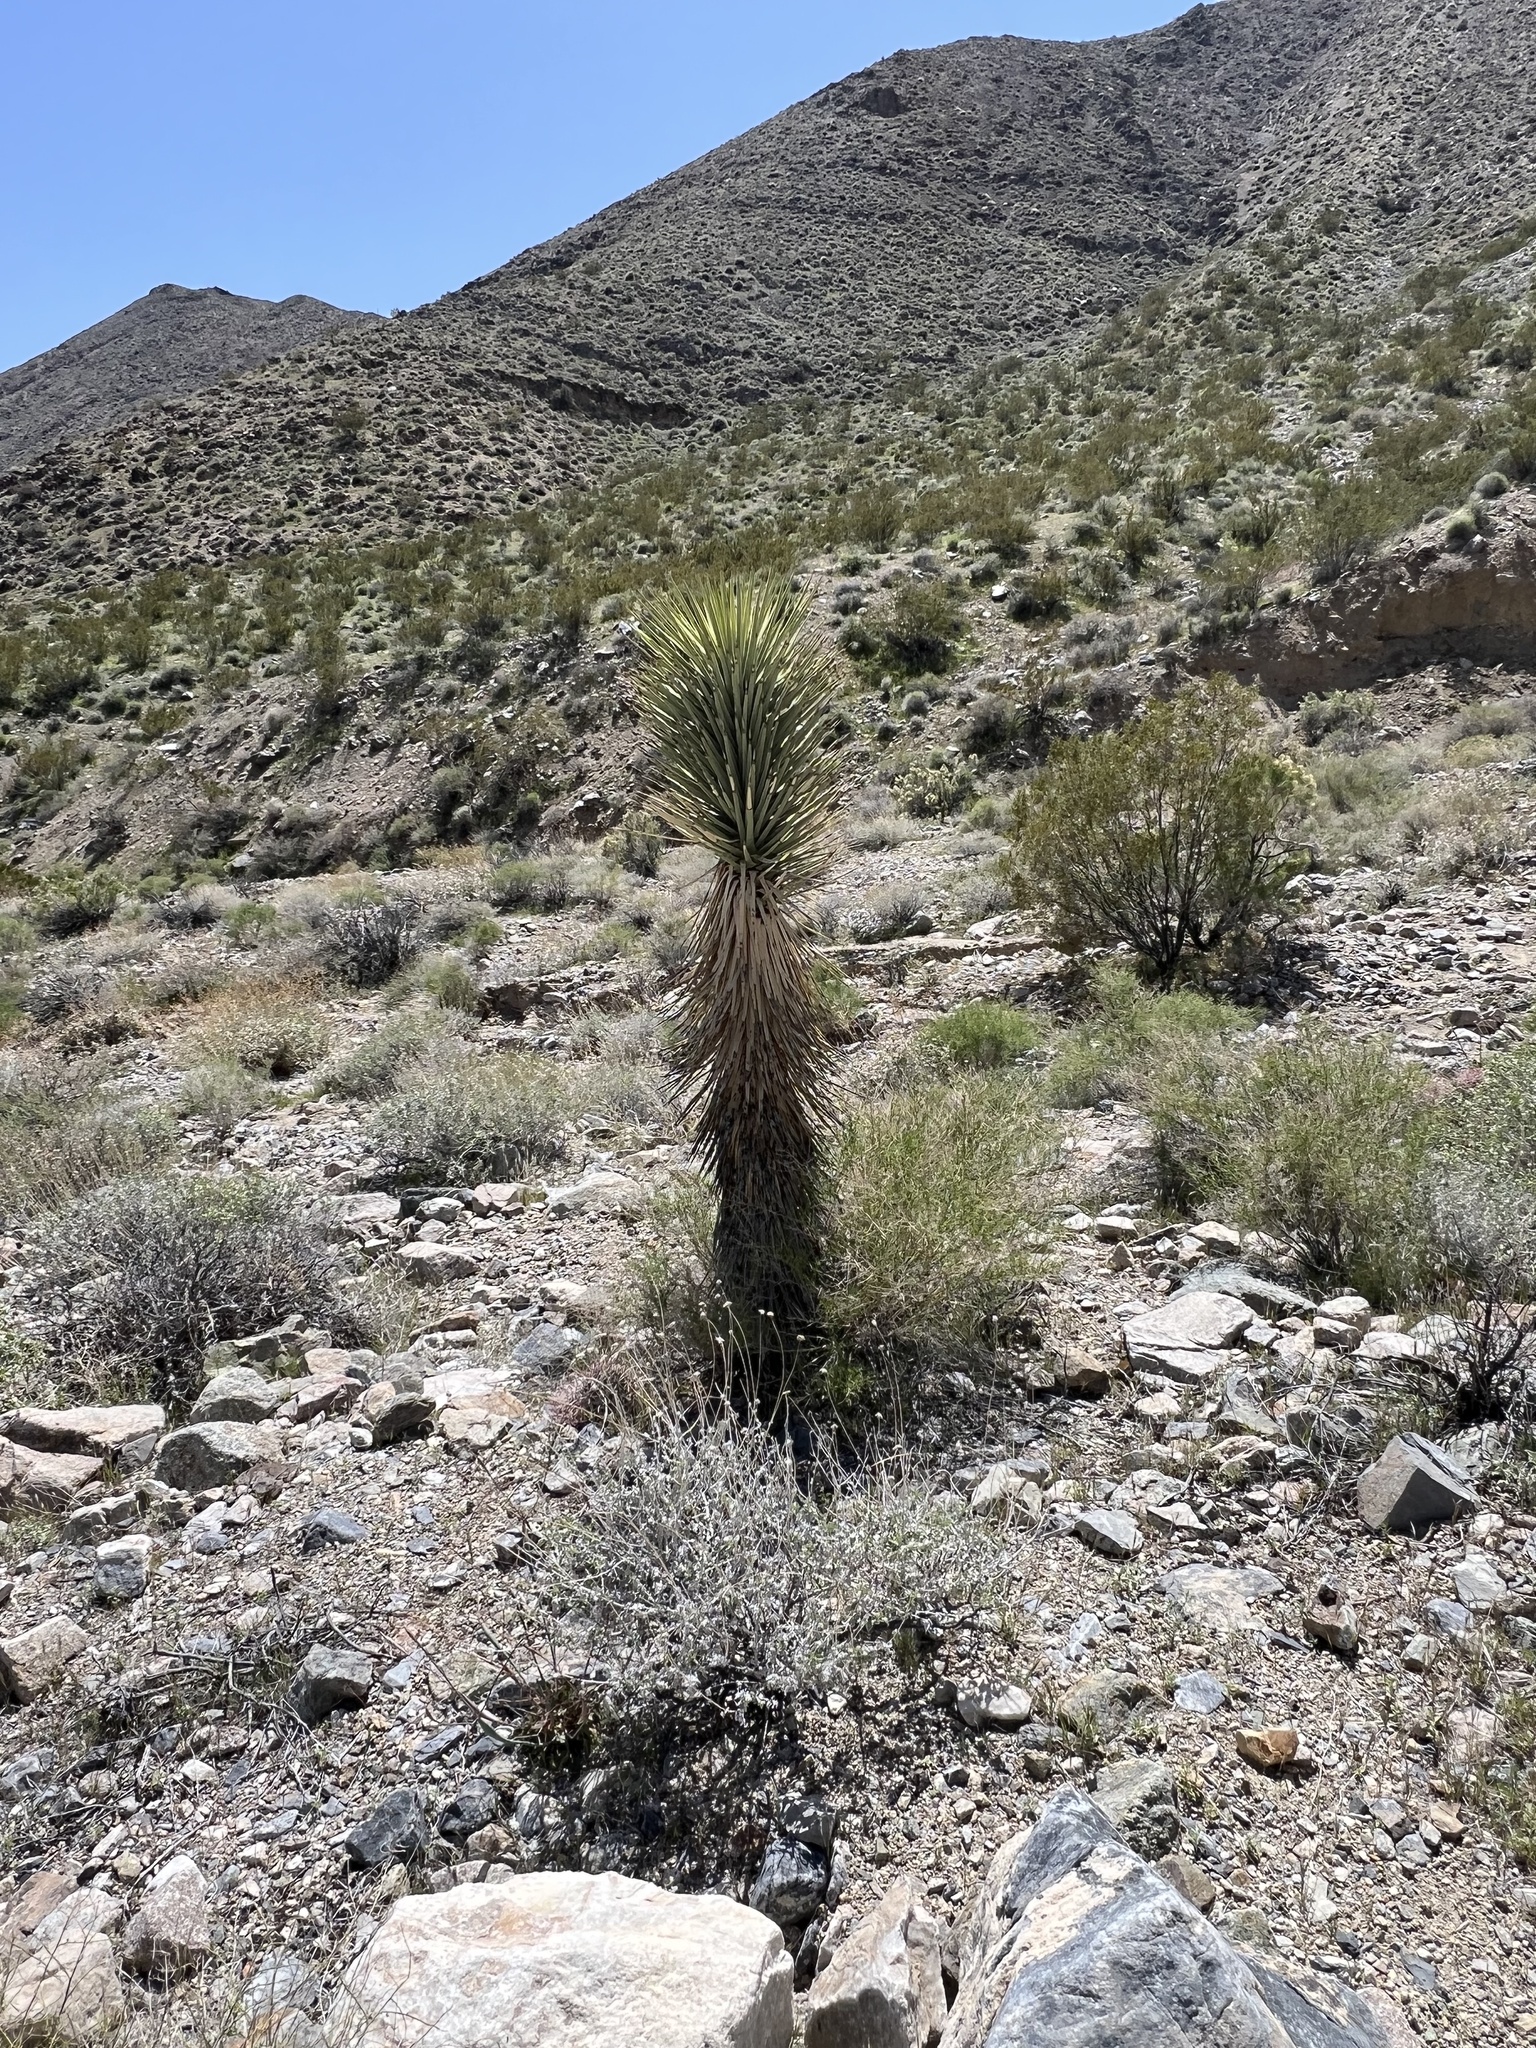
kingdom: Plantae
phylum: Tracheophyta
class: Liliopsida
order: Asparagales
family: Asparagaceae
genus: Yucca
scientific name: Yucca brevifolia
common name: Joshua tree
